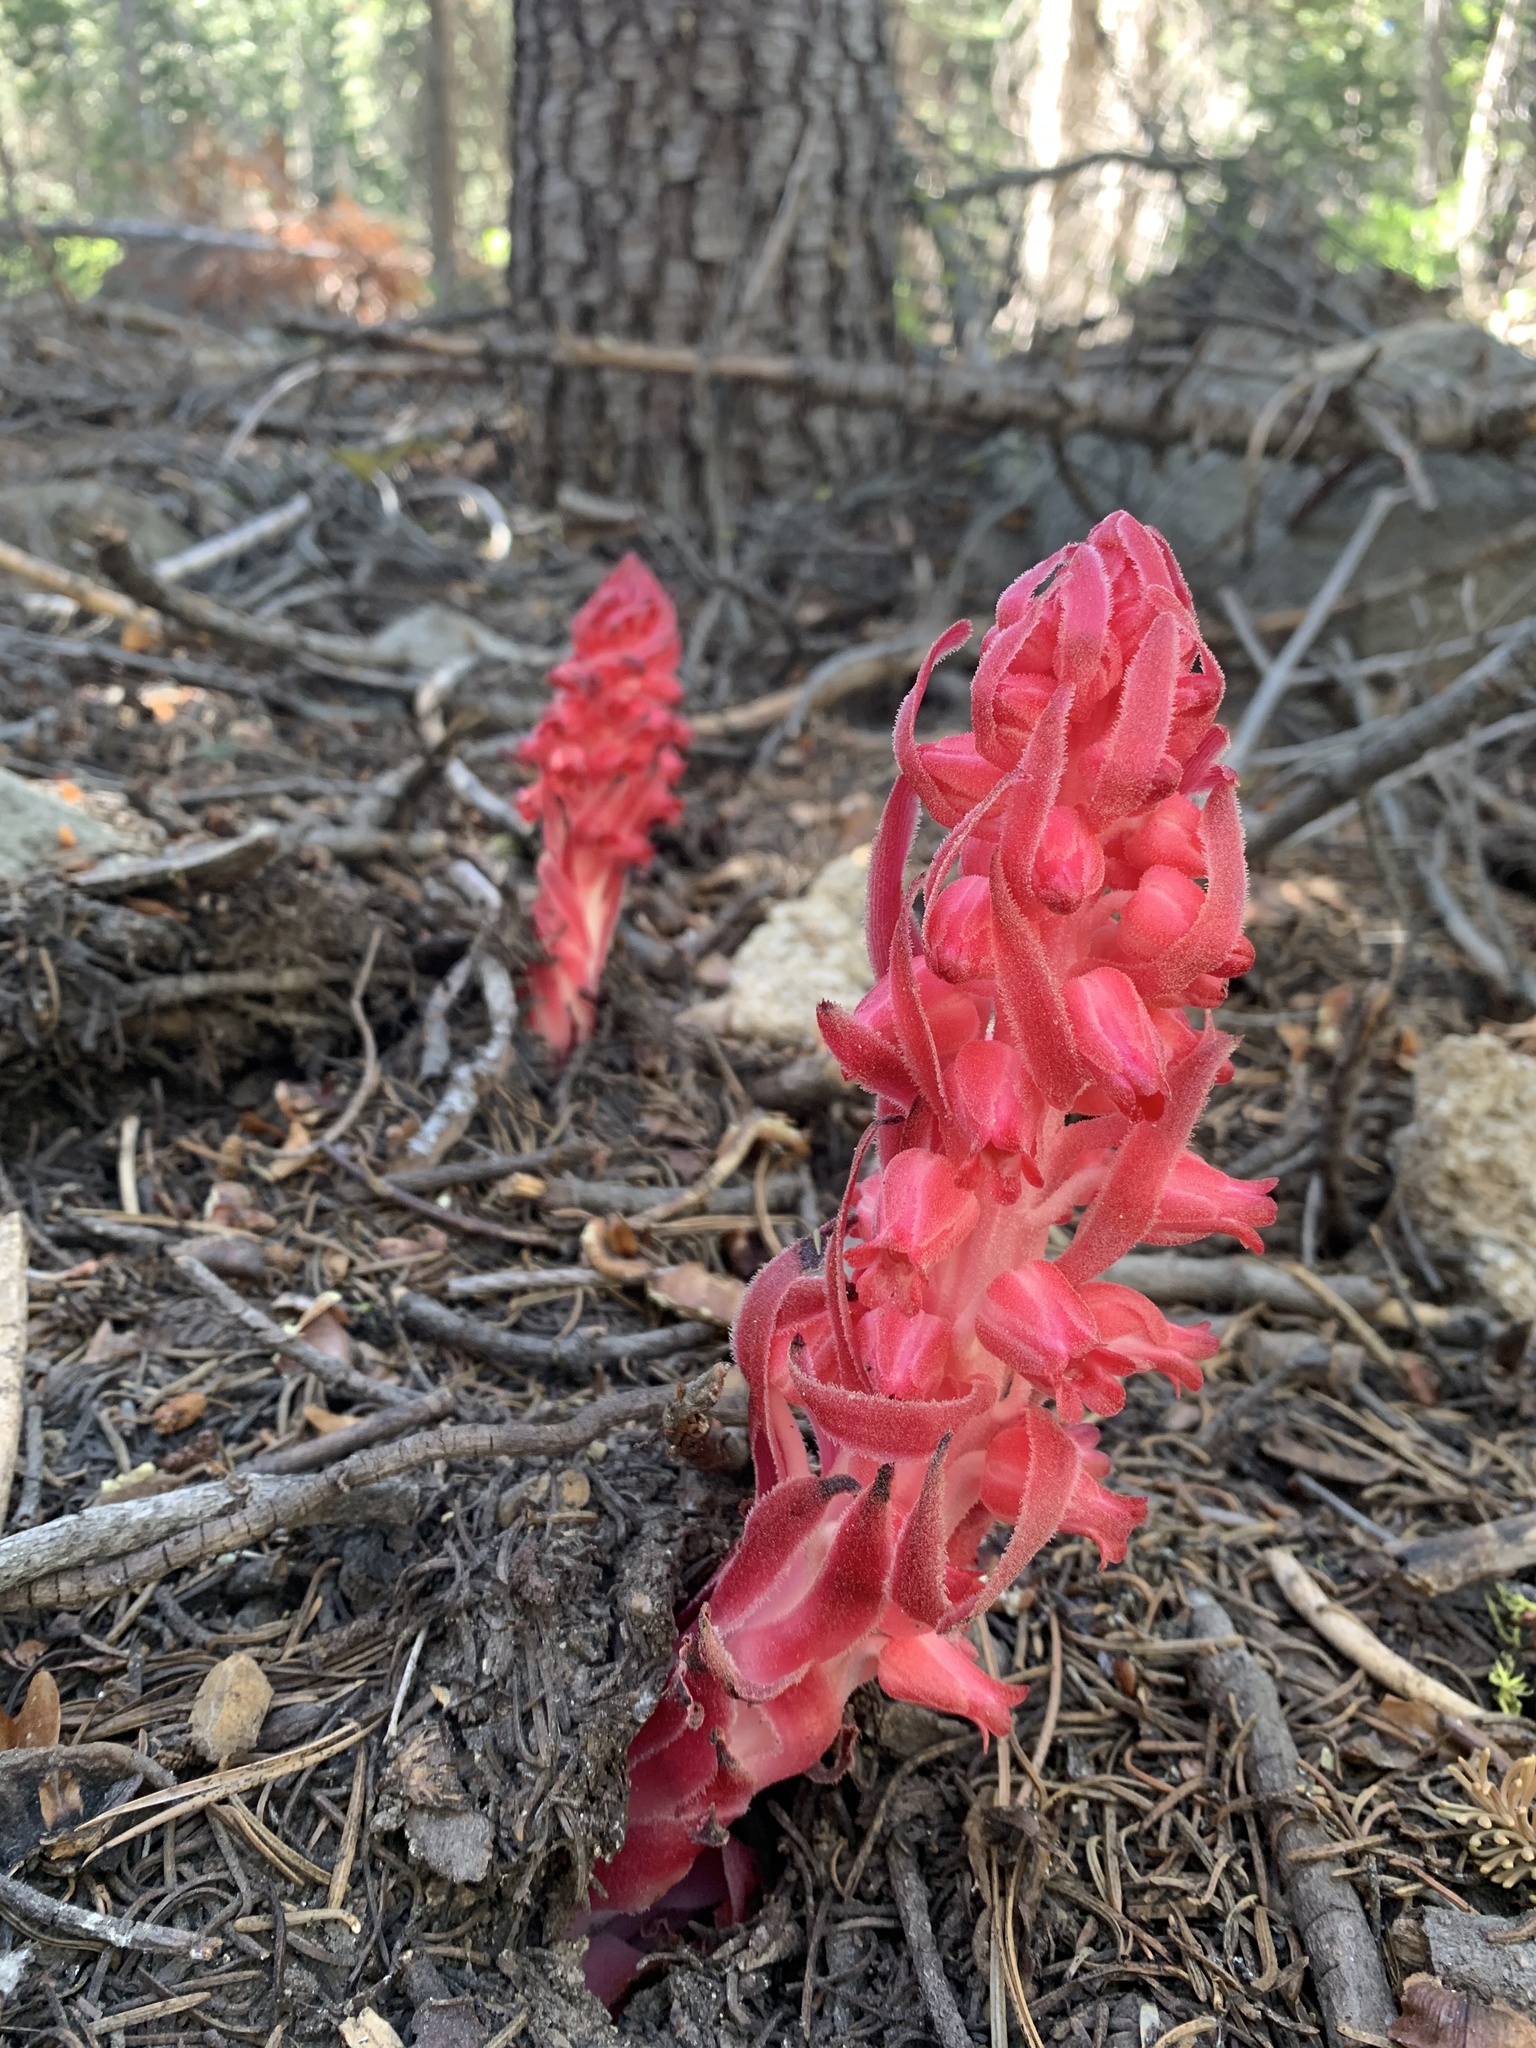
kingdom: Plantae
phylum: Tracheophyta
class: Magnoliopsida
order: Ericales
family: Ericaceae
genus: Sarcodes
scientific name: Sarcodes sanguinea
